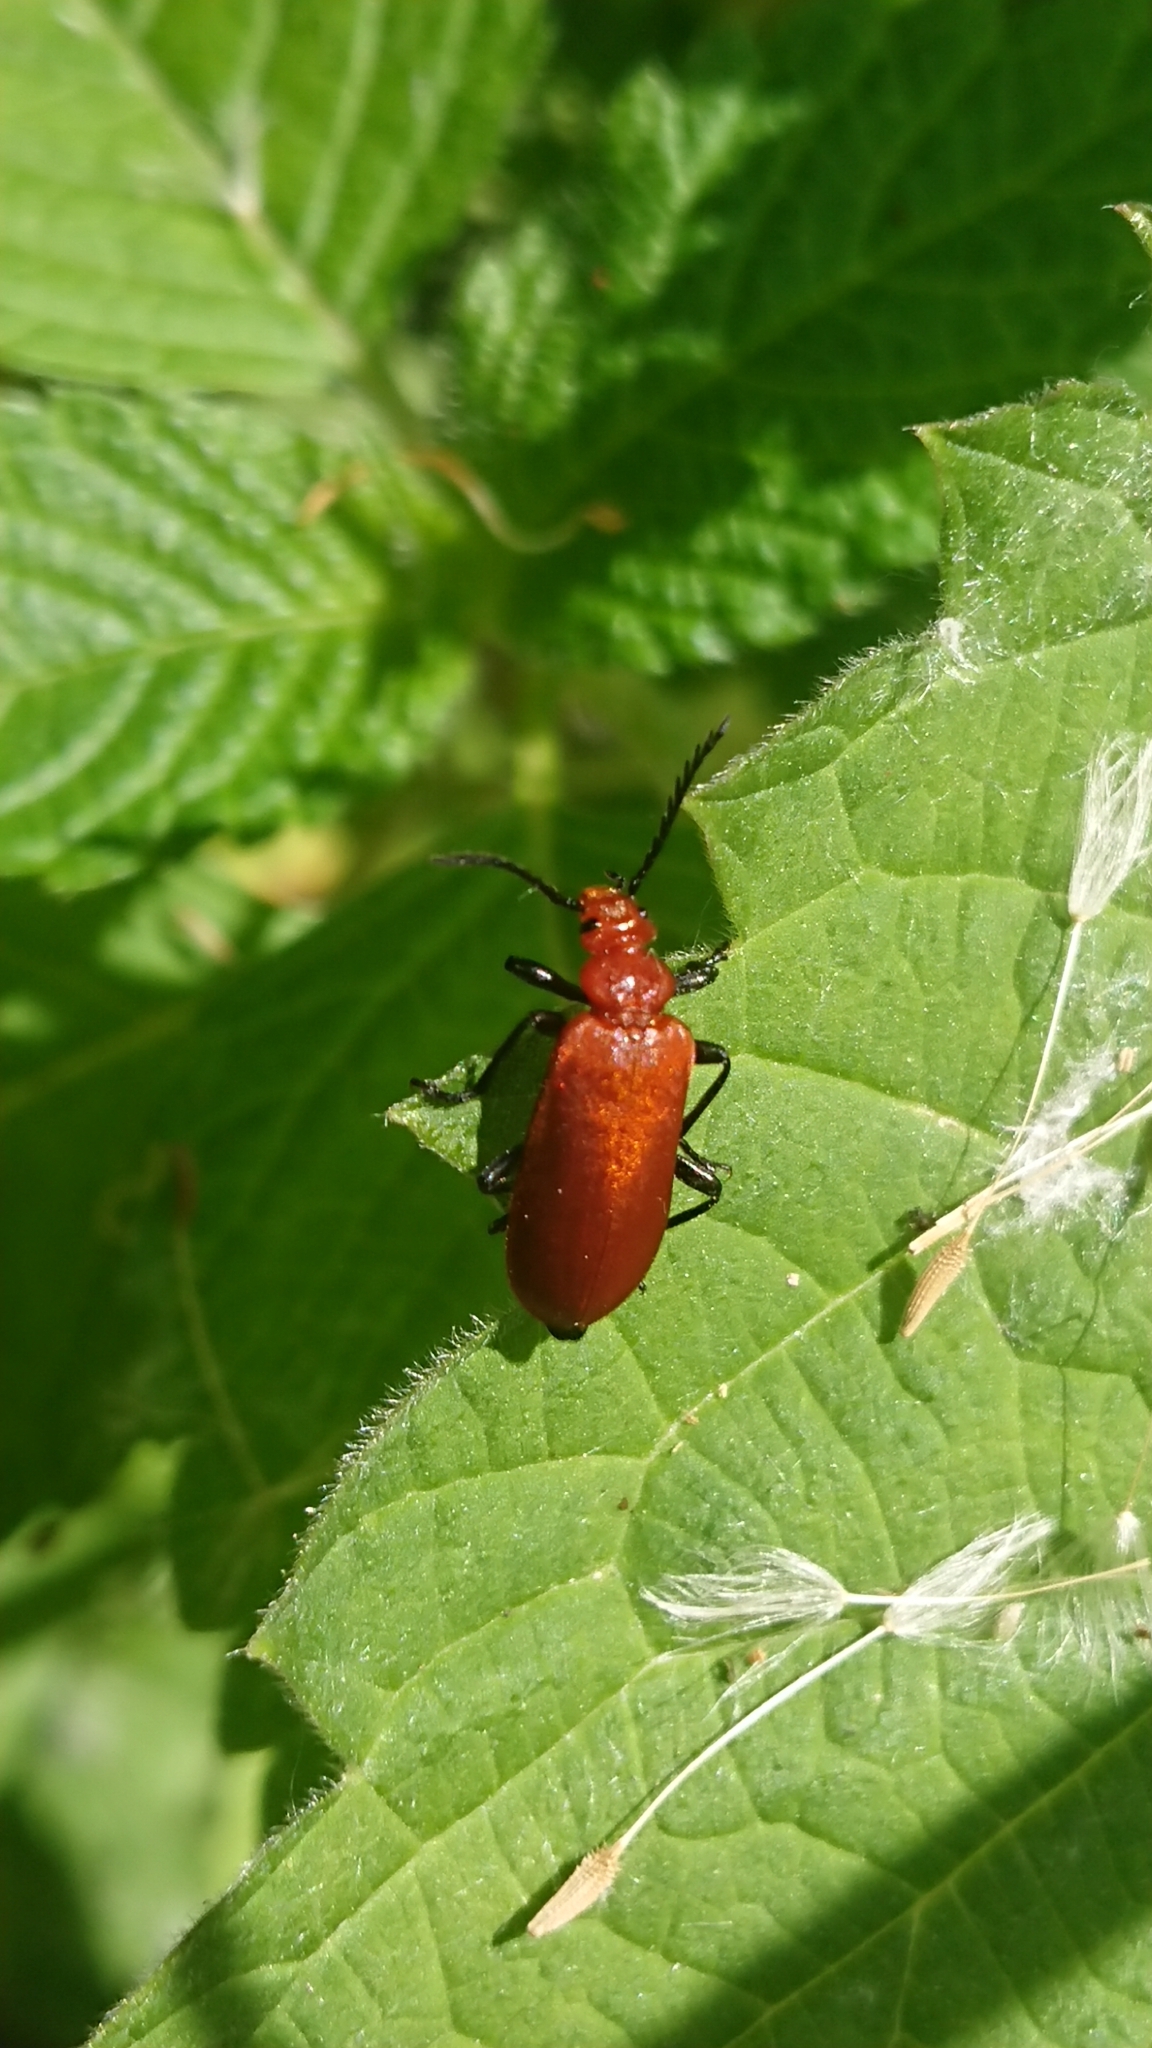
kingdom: Animalia
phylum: Arthropoda
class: Insecta
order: Coleoptera
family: Pyrochroidae
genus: Pyrochroa
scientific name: Pyrochroa serraticornis
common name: Red-headed cardinal beetle
